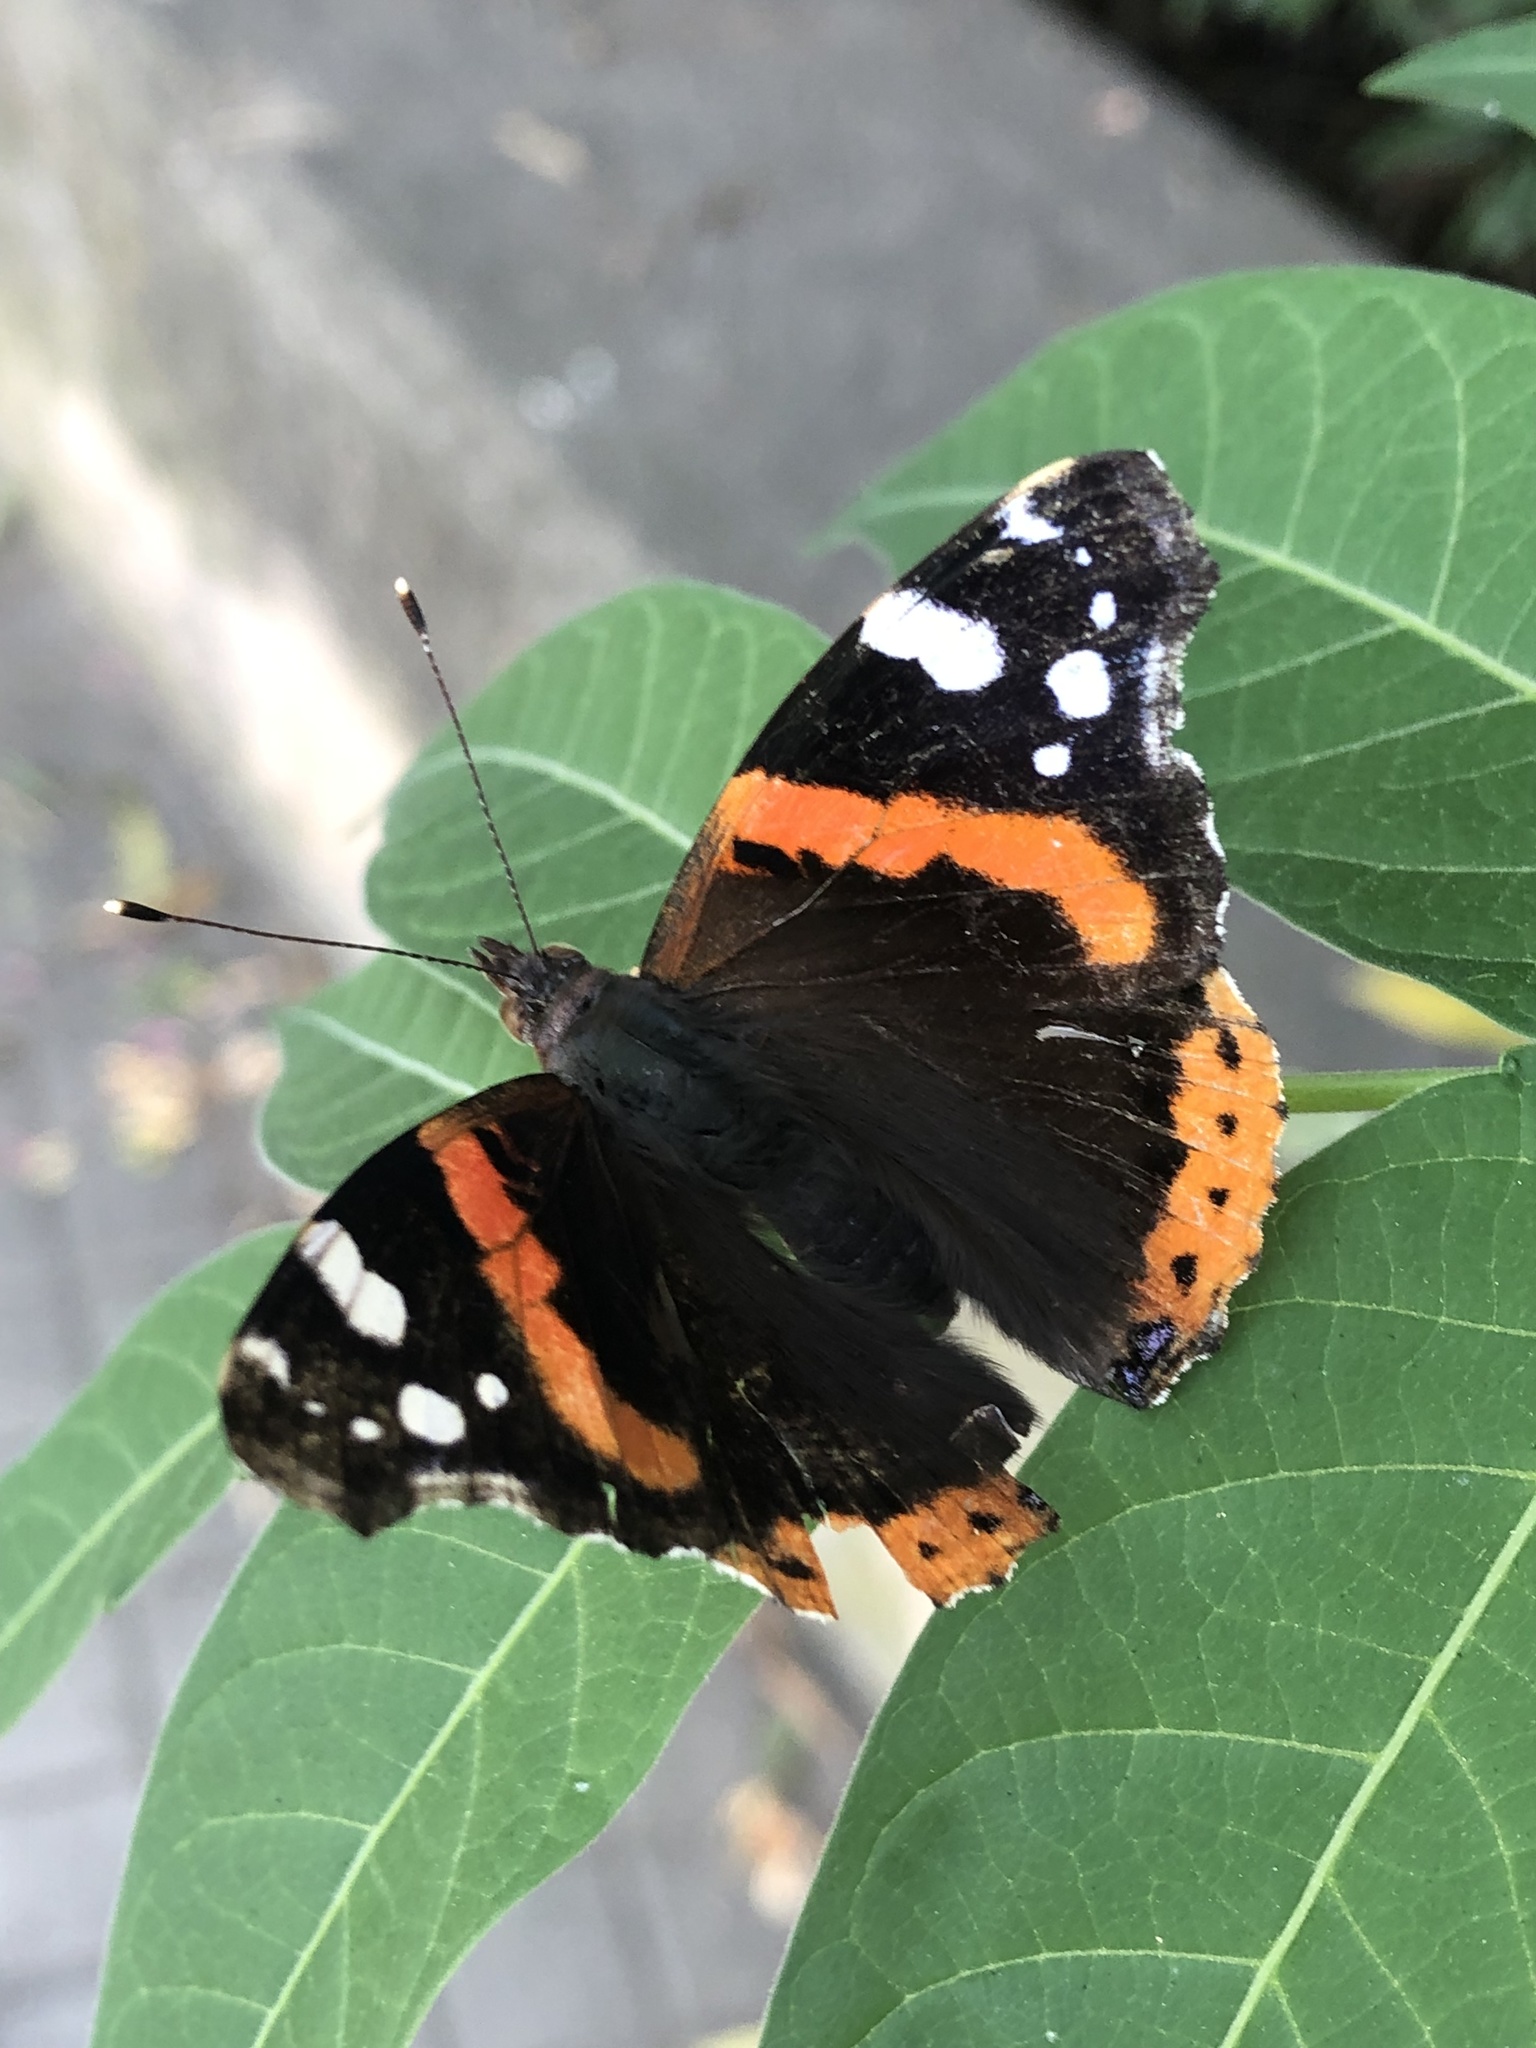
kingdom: Animalia
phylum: Arthropoda
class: Insecta
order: Lepidoptera
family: Nymphalidae
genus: Vanessa
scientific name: Vanessa atalanta
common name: Red admiral
